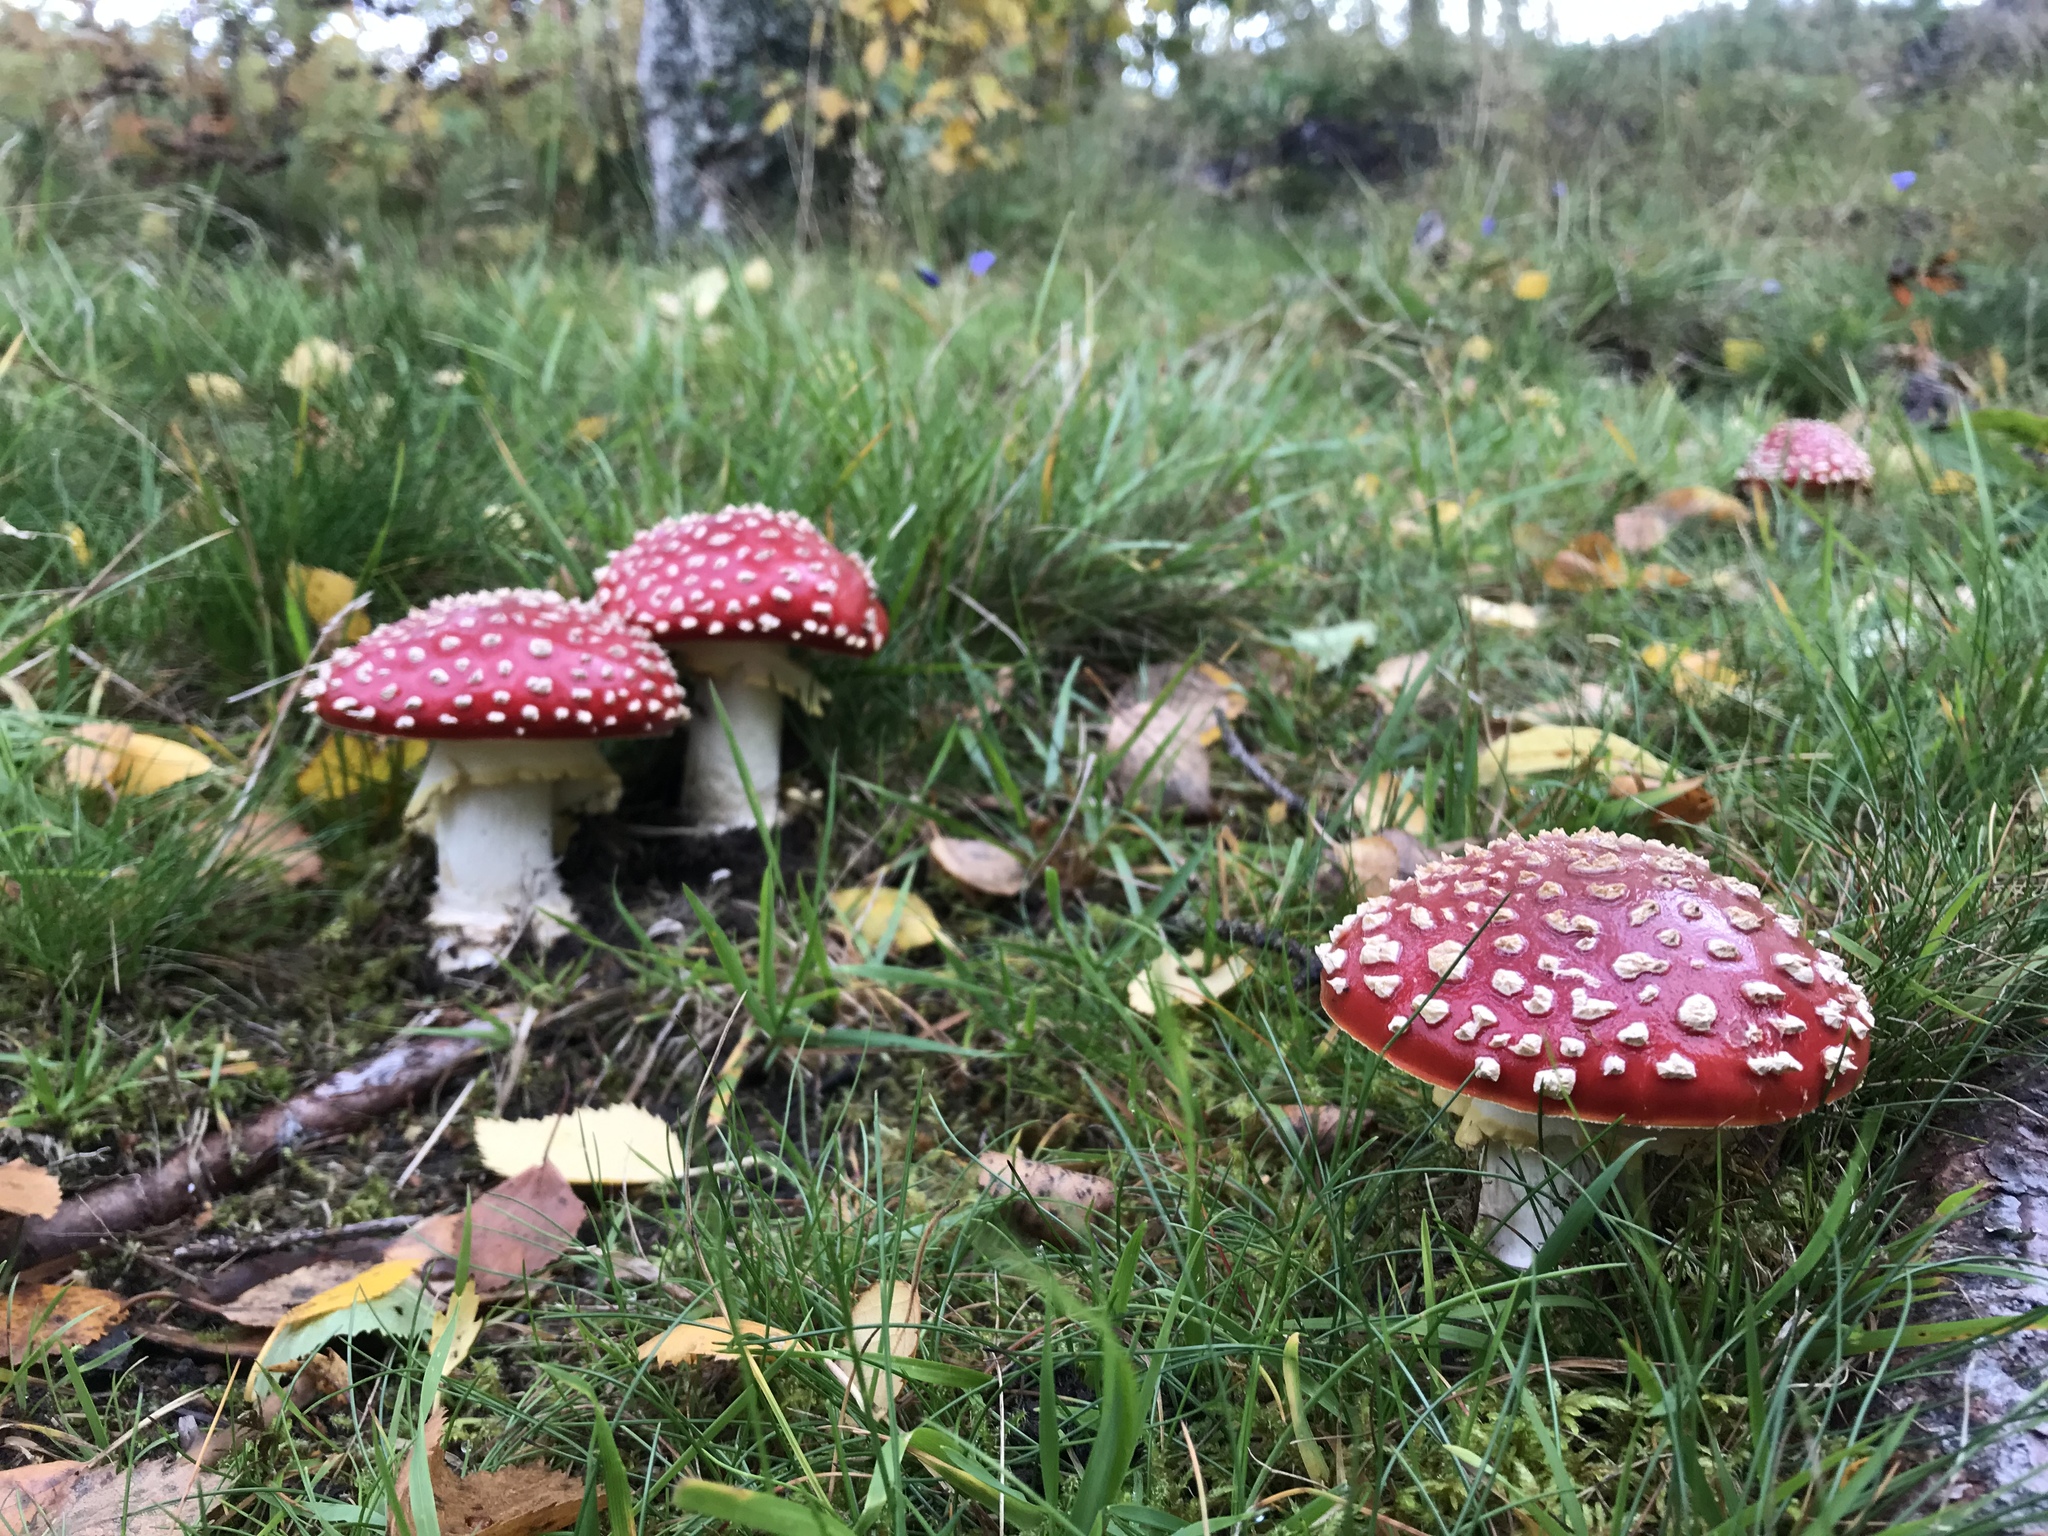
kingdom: Fungi
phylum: Basidiomycota
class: Agaricomycetes
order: Agaricales
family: Amanitaceae
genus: Amanita
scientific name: Amanita muscaria
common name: Fly agaric
